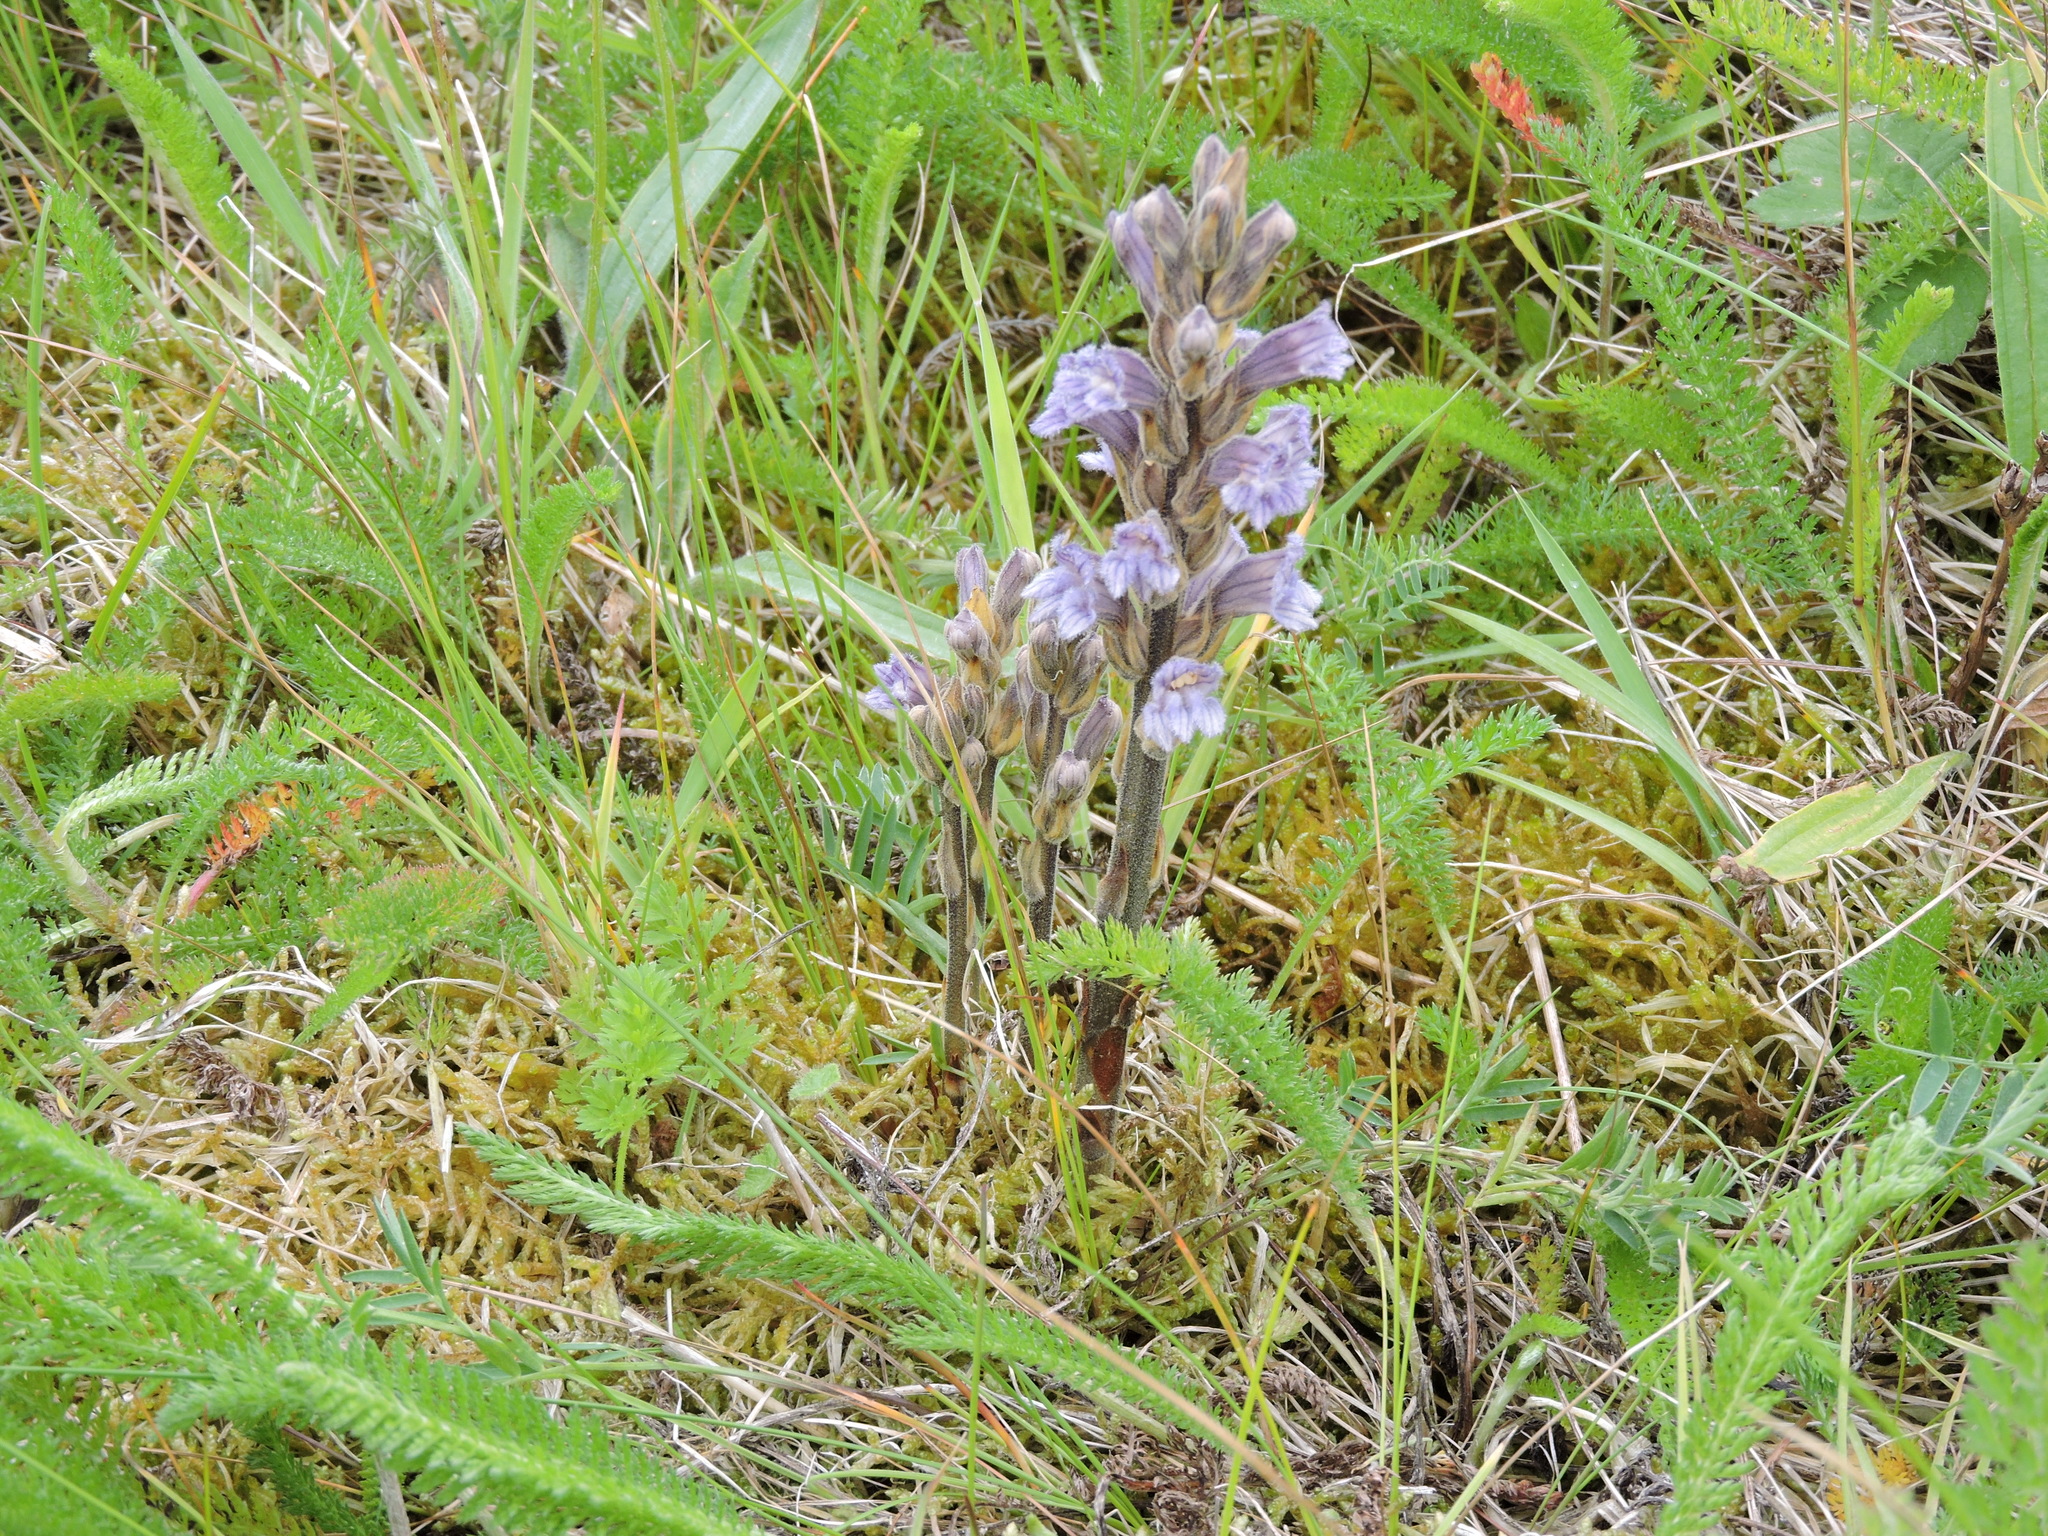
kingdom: Plantae
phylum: Tracheophyta
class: Magnoliopsida
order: Lamiales
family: Orobanchaceae
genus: Phelipanche
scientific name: Phelipanche purpurea
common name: Purple broomrape
